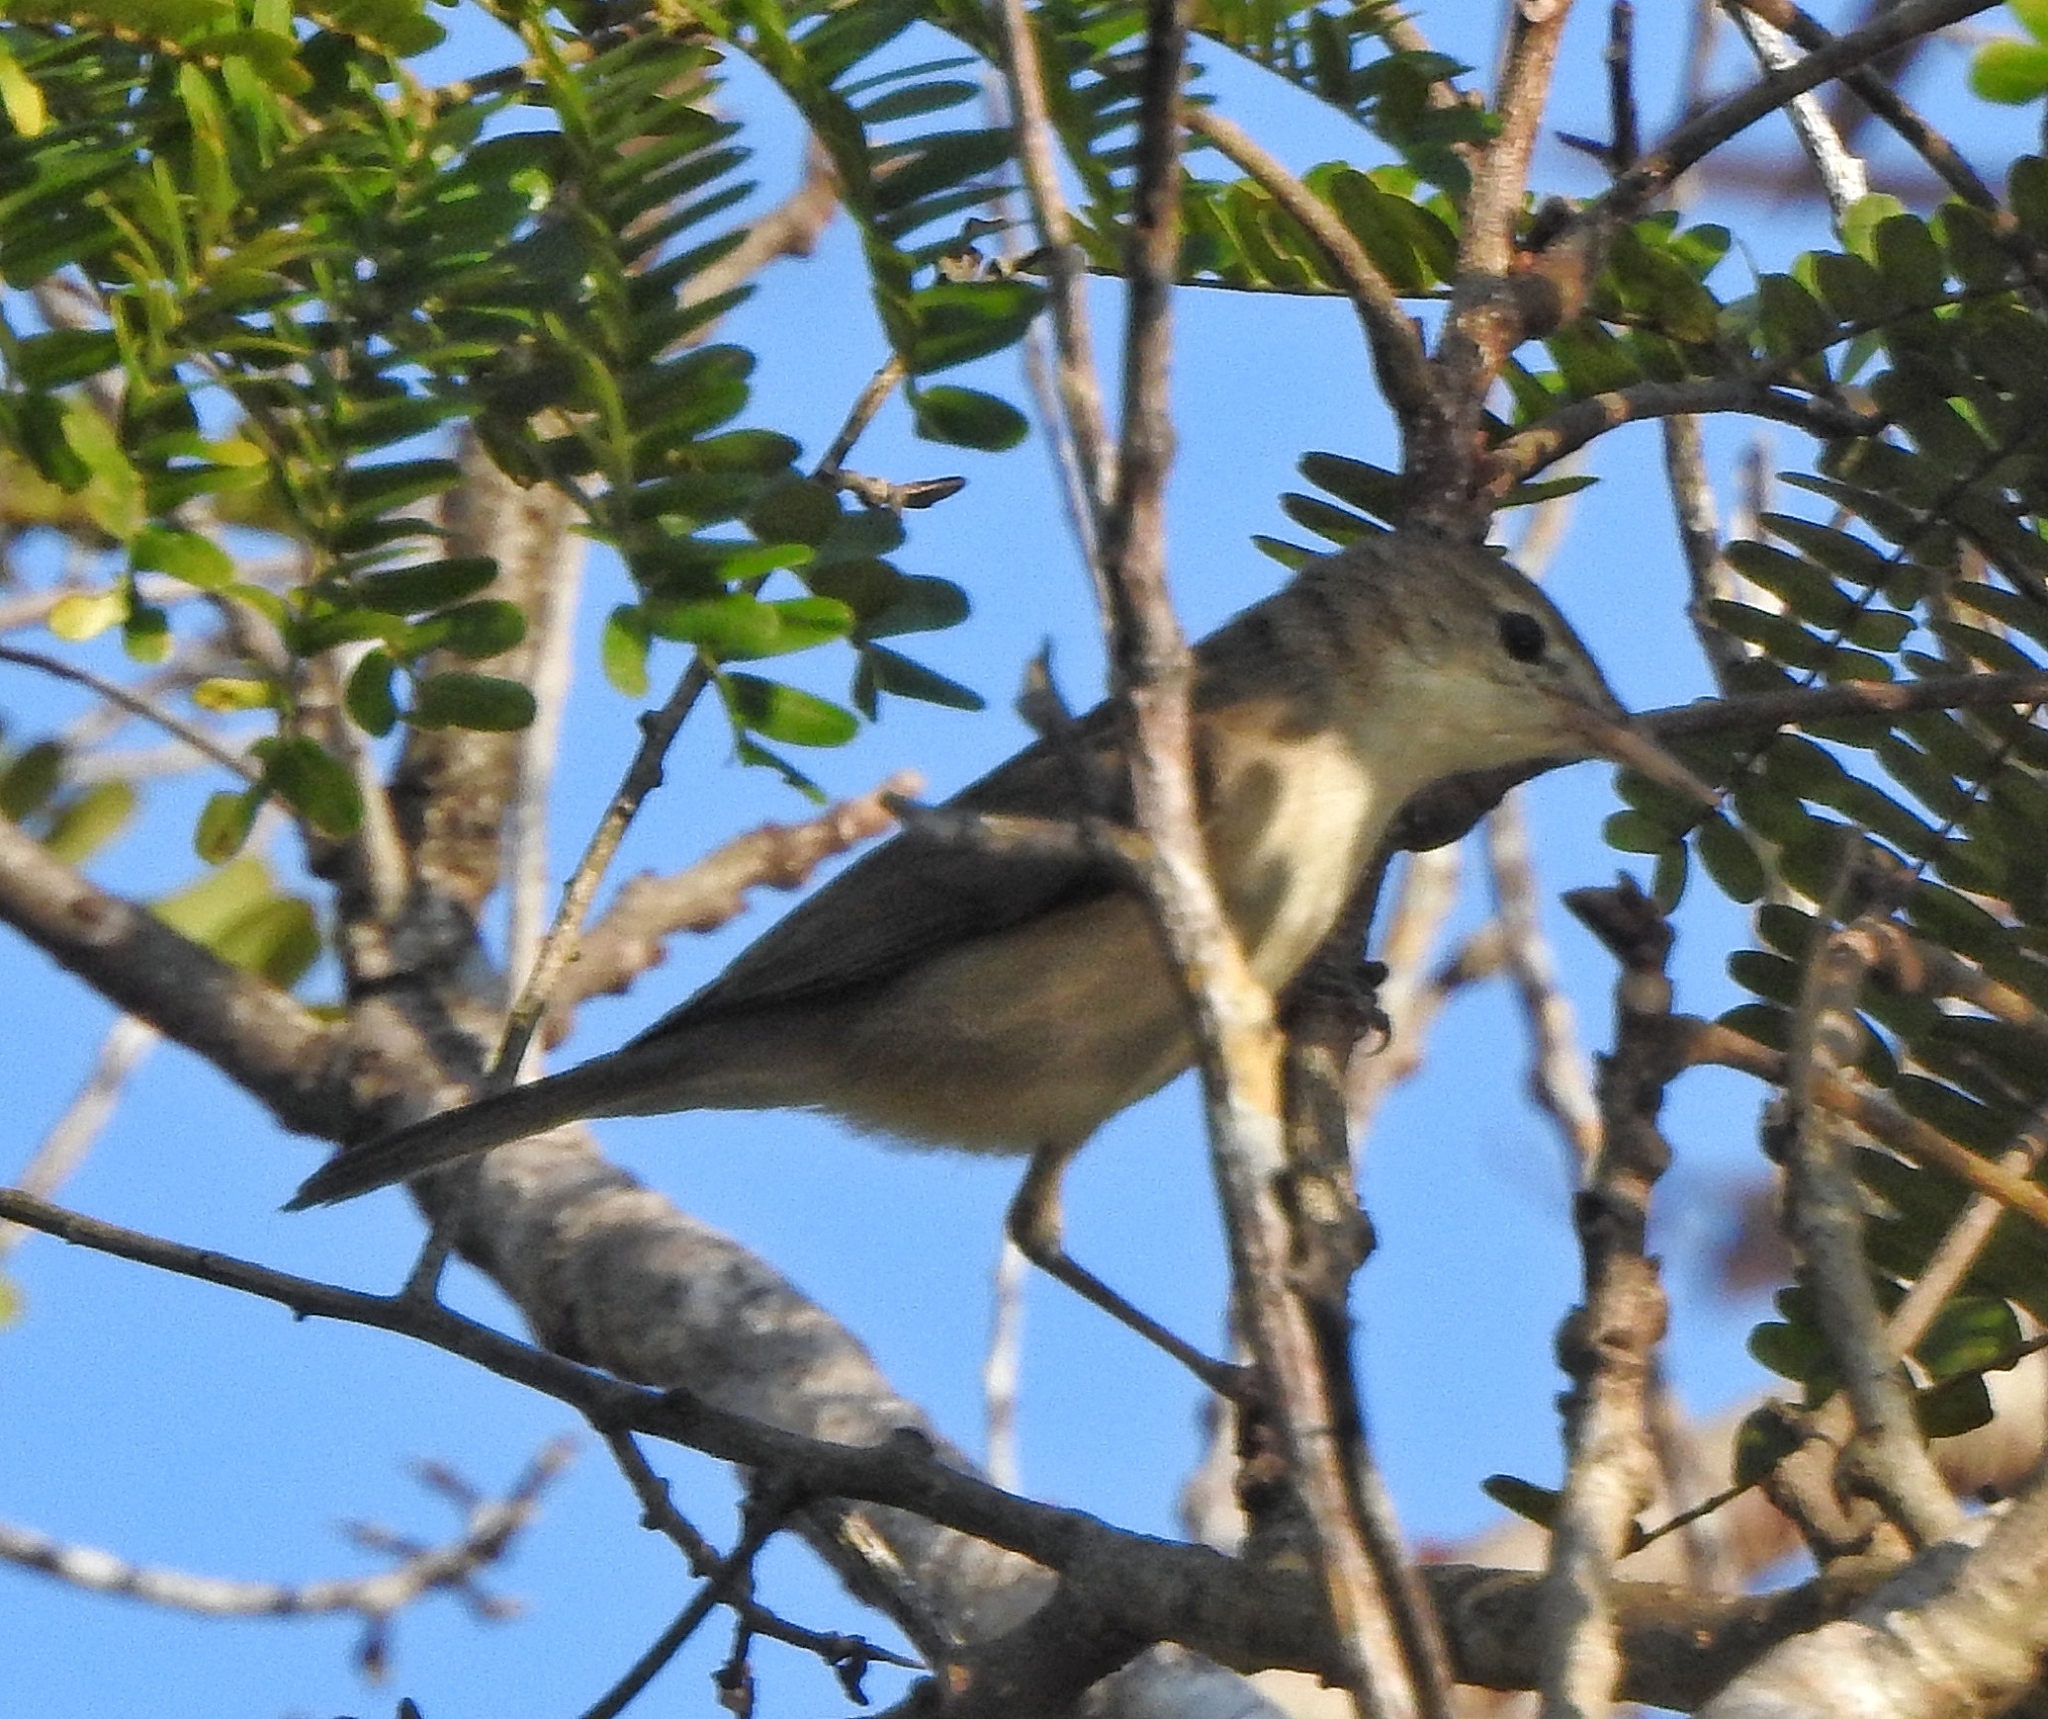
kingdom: Animalia
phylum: Chordata
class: Aves
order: Passeriformes
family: Acrocephalidae
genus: Iduna
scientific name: Iduna rama
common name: Sykes's warbler
